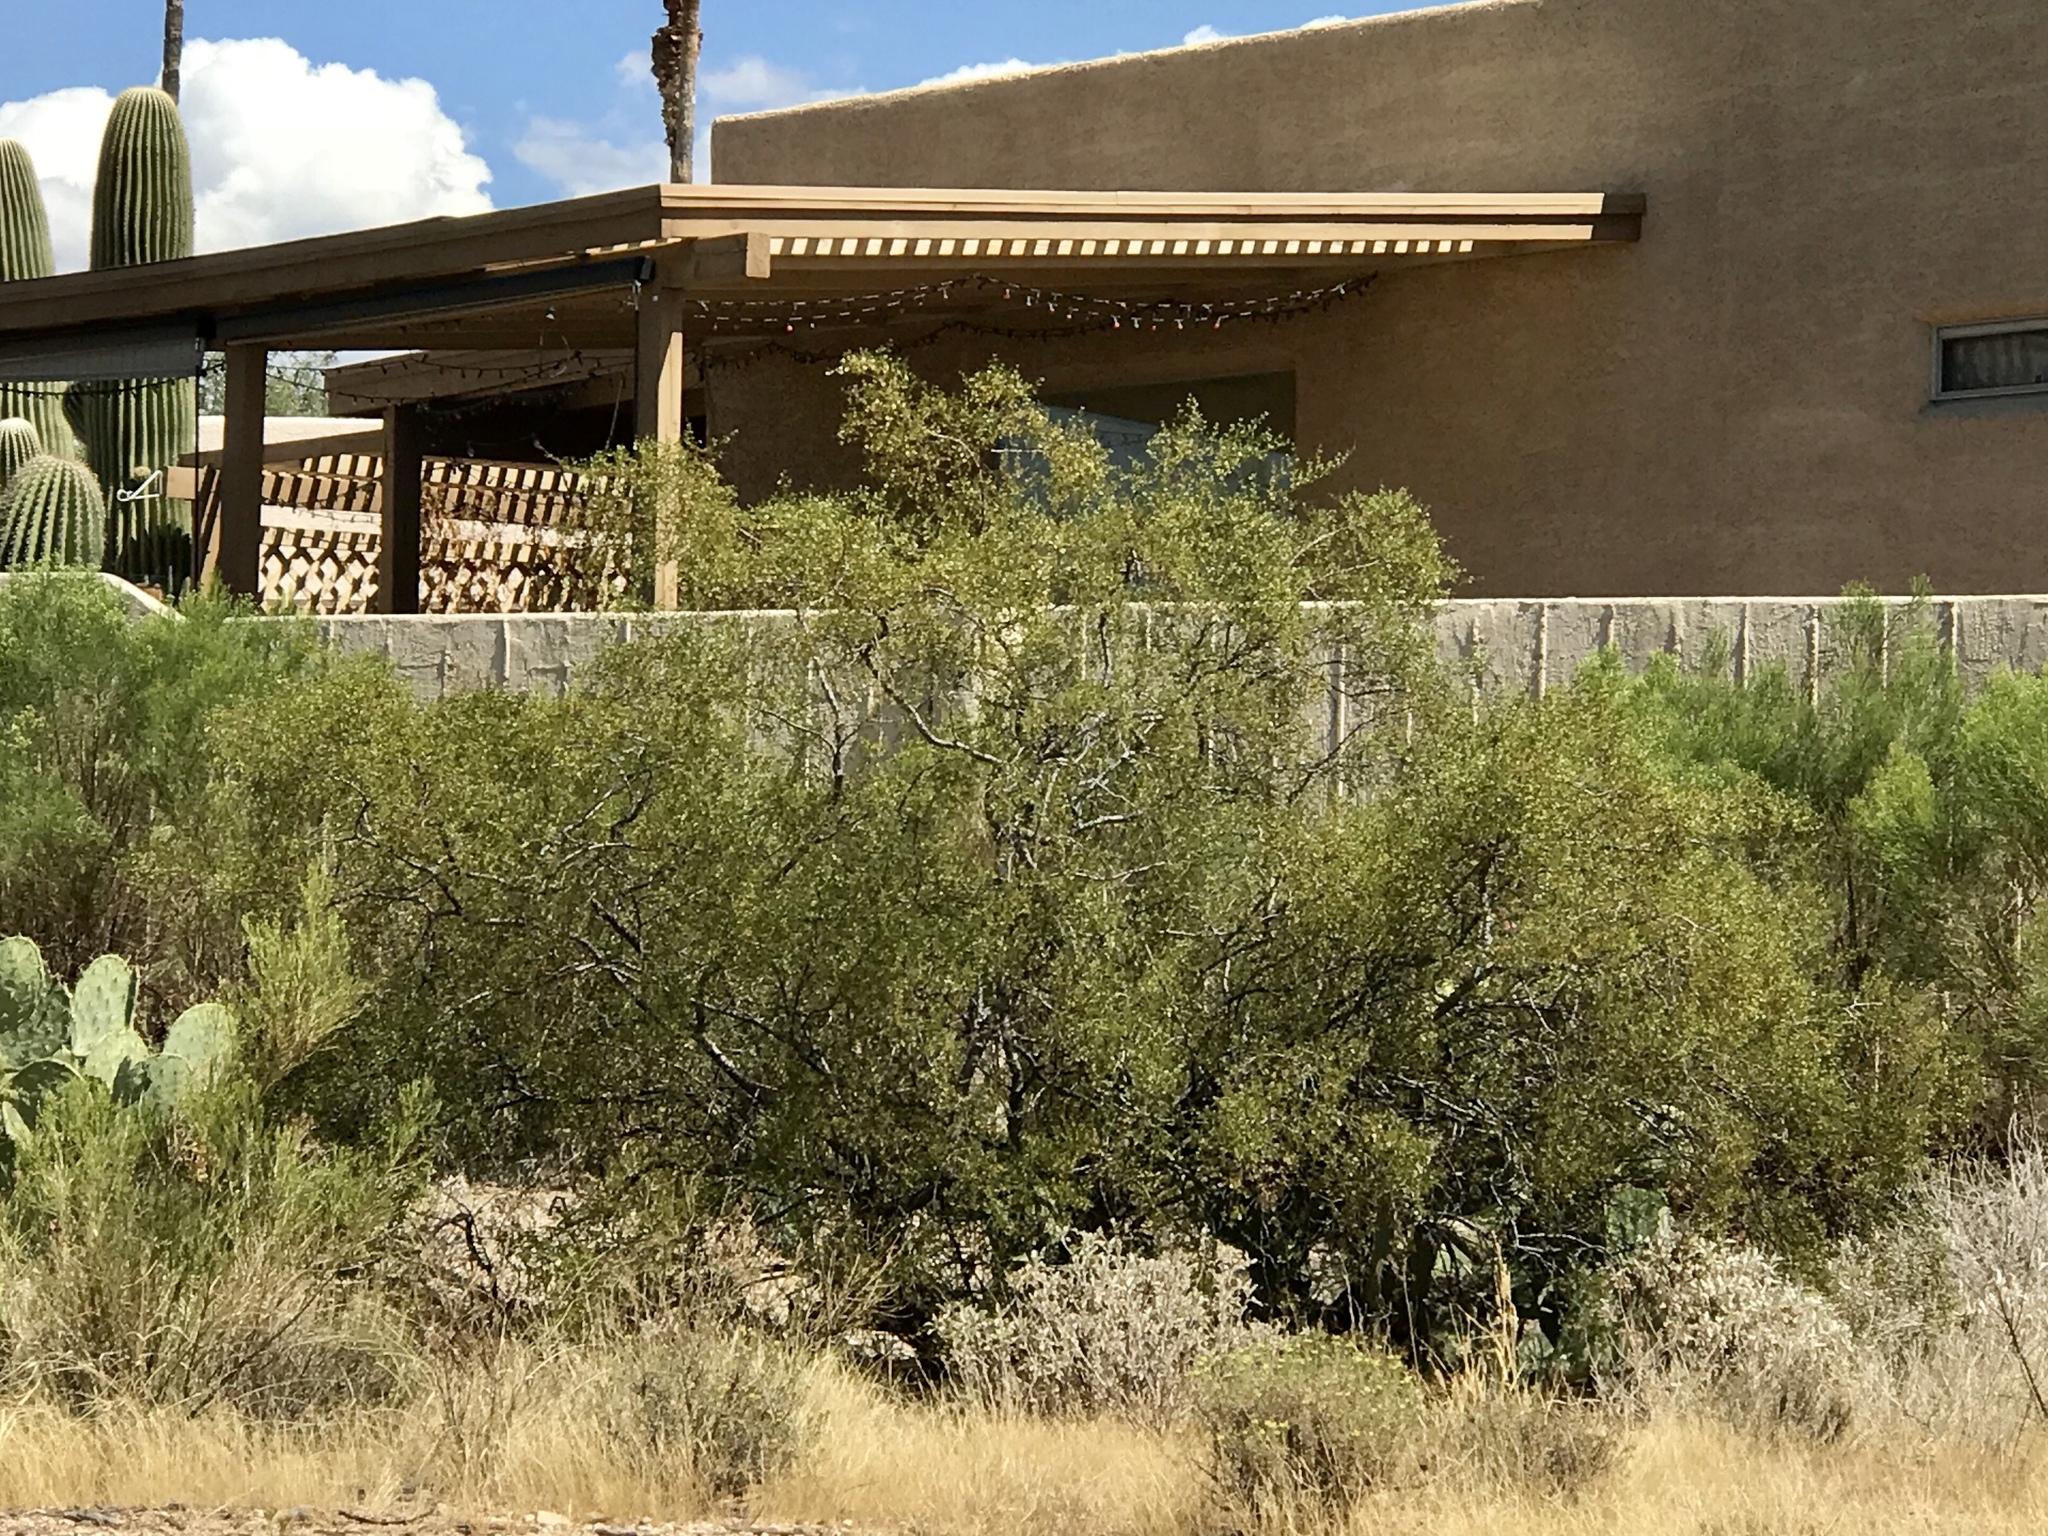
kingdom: Plantae
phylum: Tracheophyta
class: Magnoliopsida
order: Zygophyllales
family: Zygophyllaceae
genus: Larrea
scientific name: Larrea tridentata
